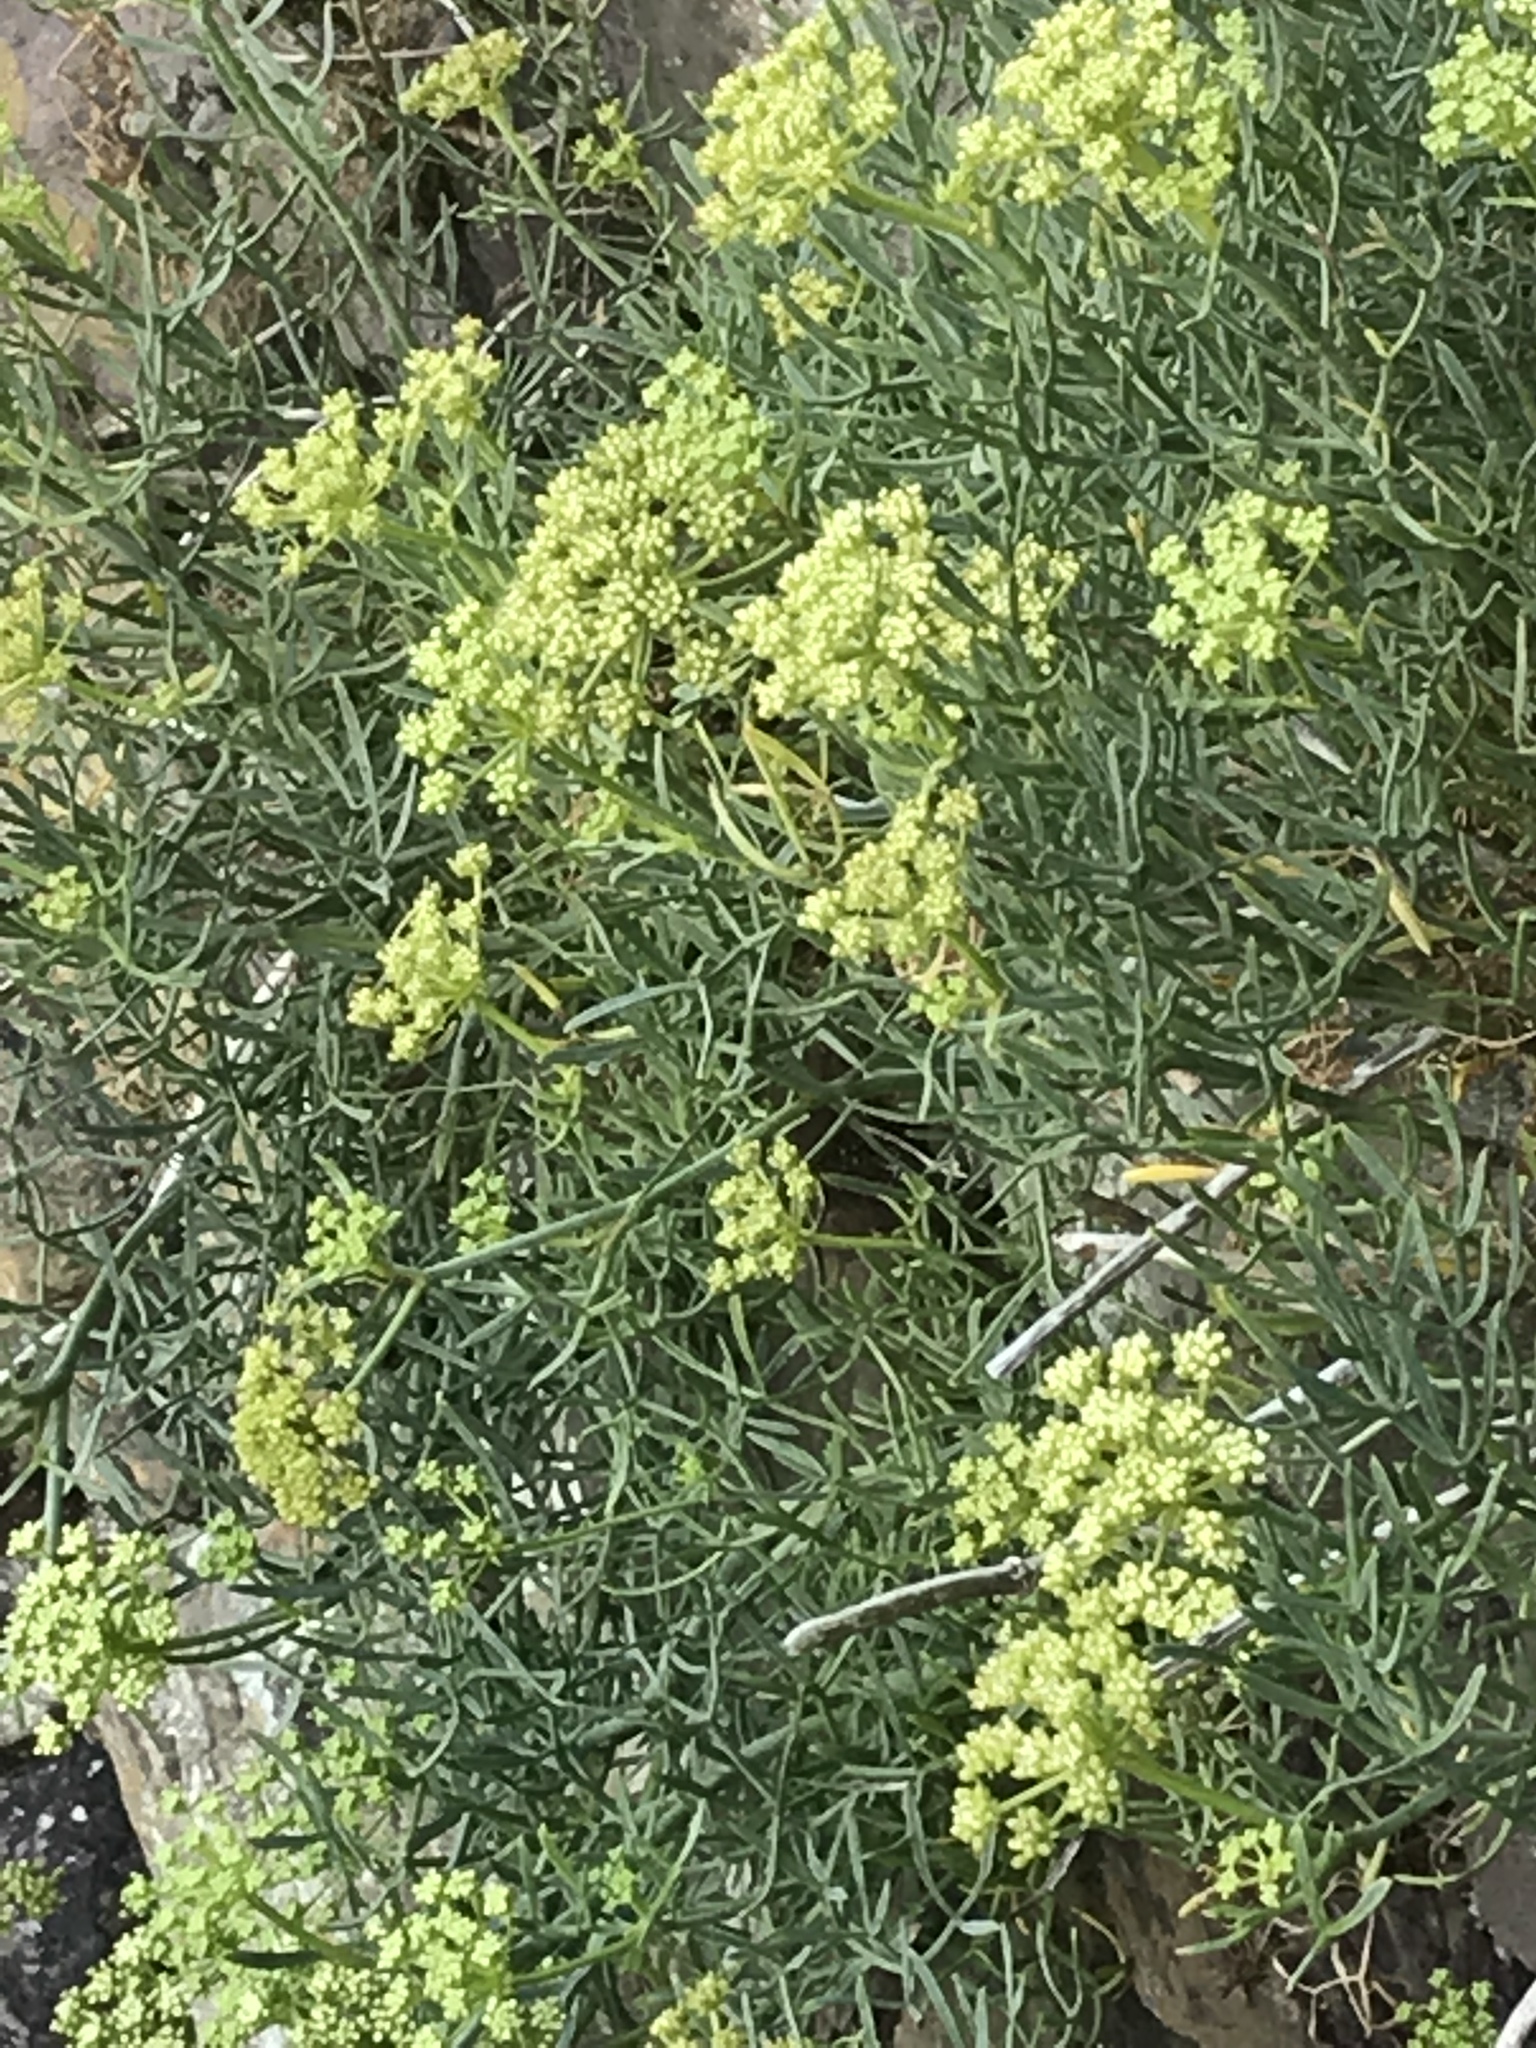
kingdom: Plantae
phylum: Tracheophyta
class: Magnoliopsida
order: Apiales
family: Apiaceae
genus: Crithmum
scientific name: Crithmum maritimum
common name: Rock samphire
